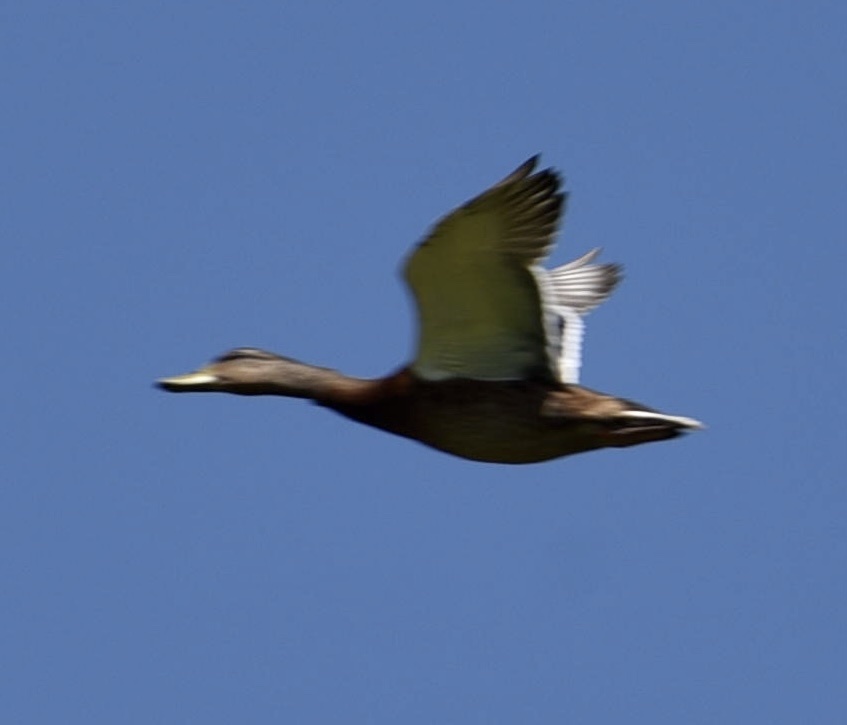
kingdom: Animalia
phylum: Chordata
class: Aves
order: Anseriformes
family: Anatidae
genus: Anas
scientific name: Anas platyrhynchos
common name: Mallard
